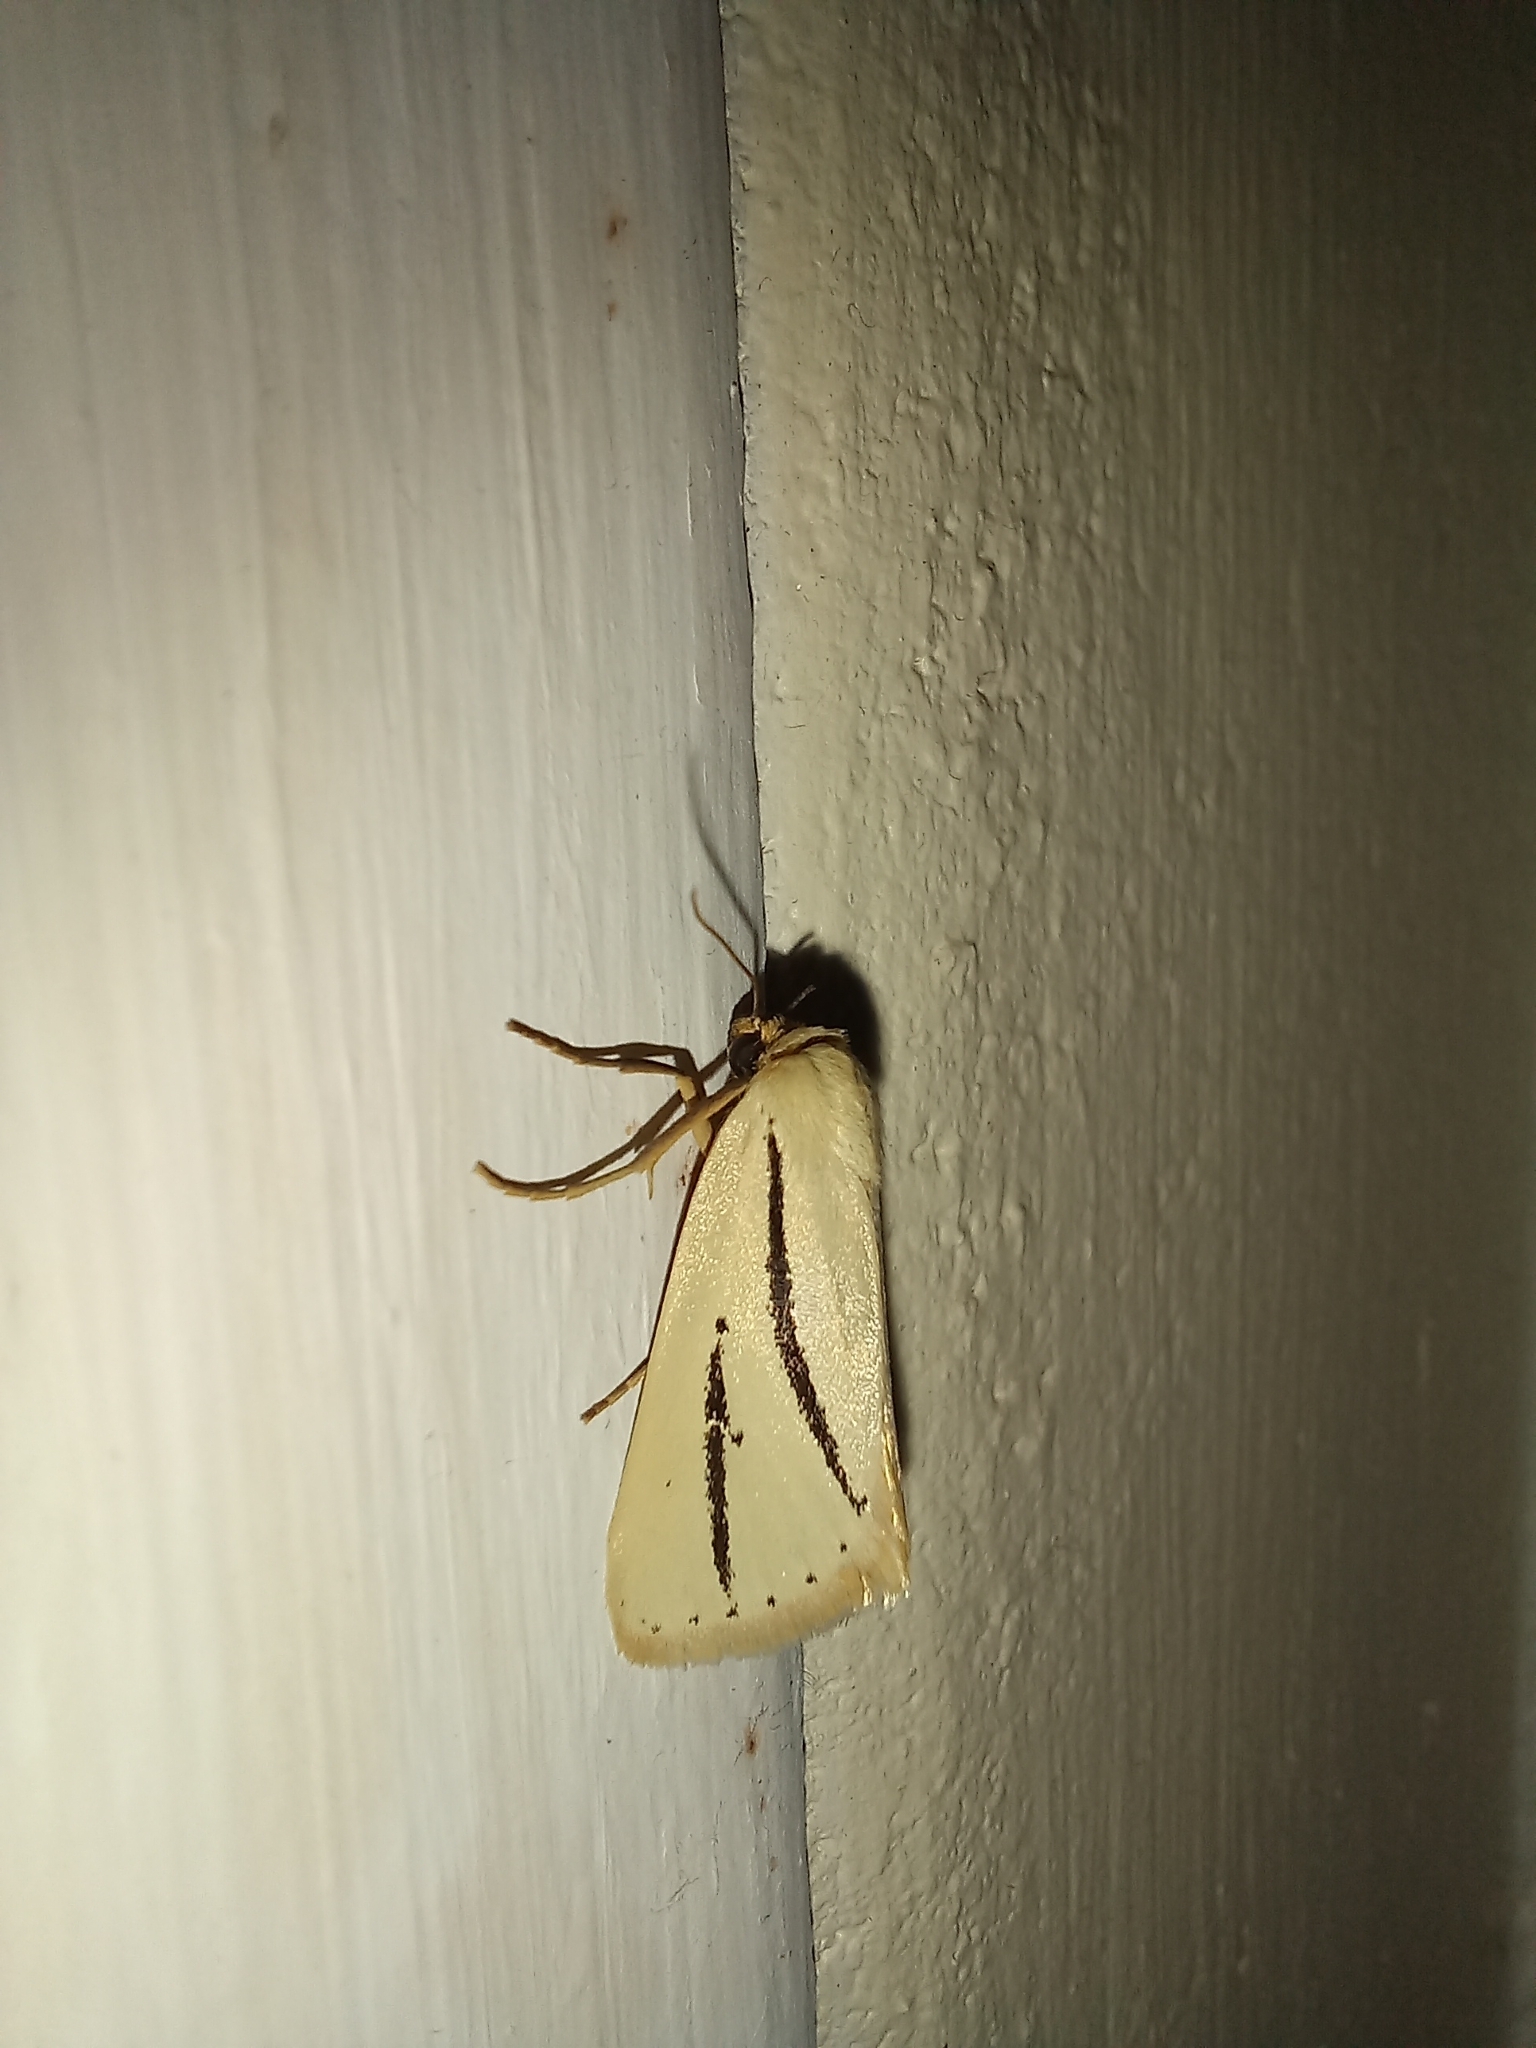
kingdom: Animalia
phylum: Arthropoda
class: Insecta
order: Lepidoptera
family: Erebidae
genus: Grammarctia
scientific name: Grammarctia bilinea
